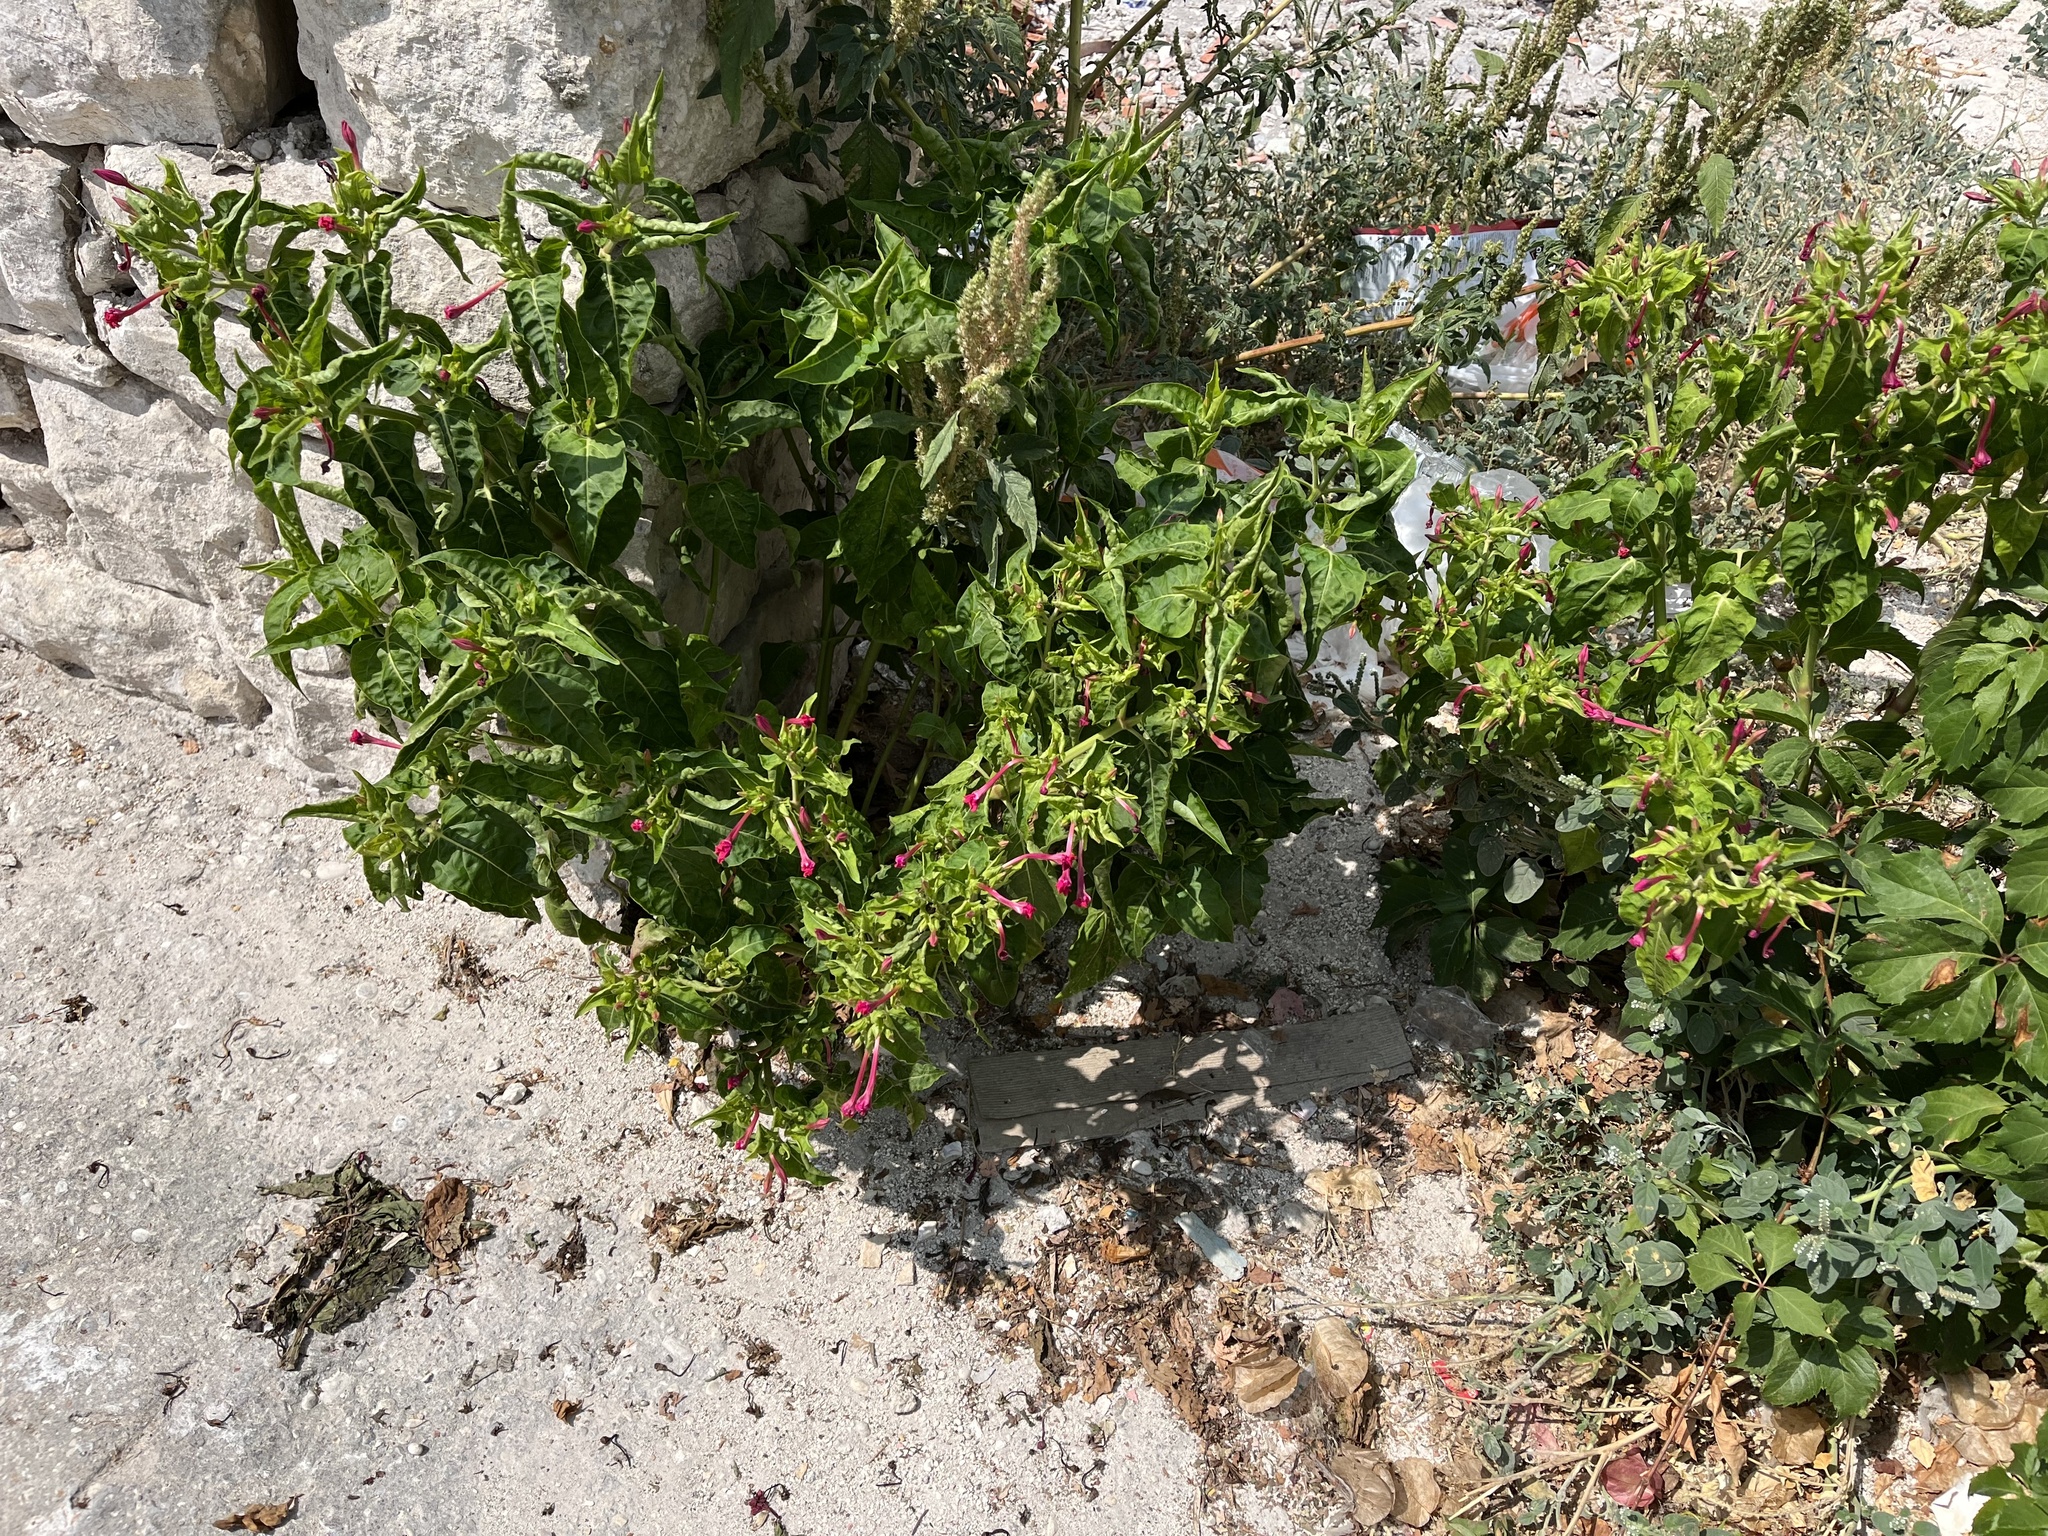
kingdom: Plantae
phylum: Tracheophyta
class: Magnoliopsida
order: Caryophyllales
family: Nyctaginaceae
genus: Mirabilis
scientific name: Mirabilis jalapa
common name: Marvel-of-peru
